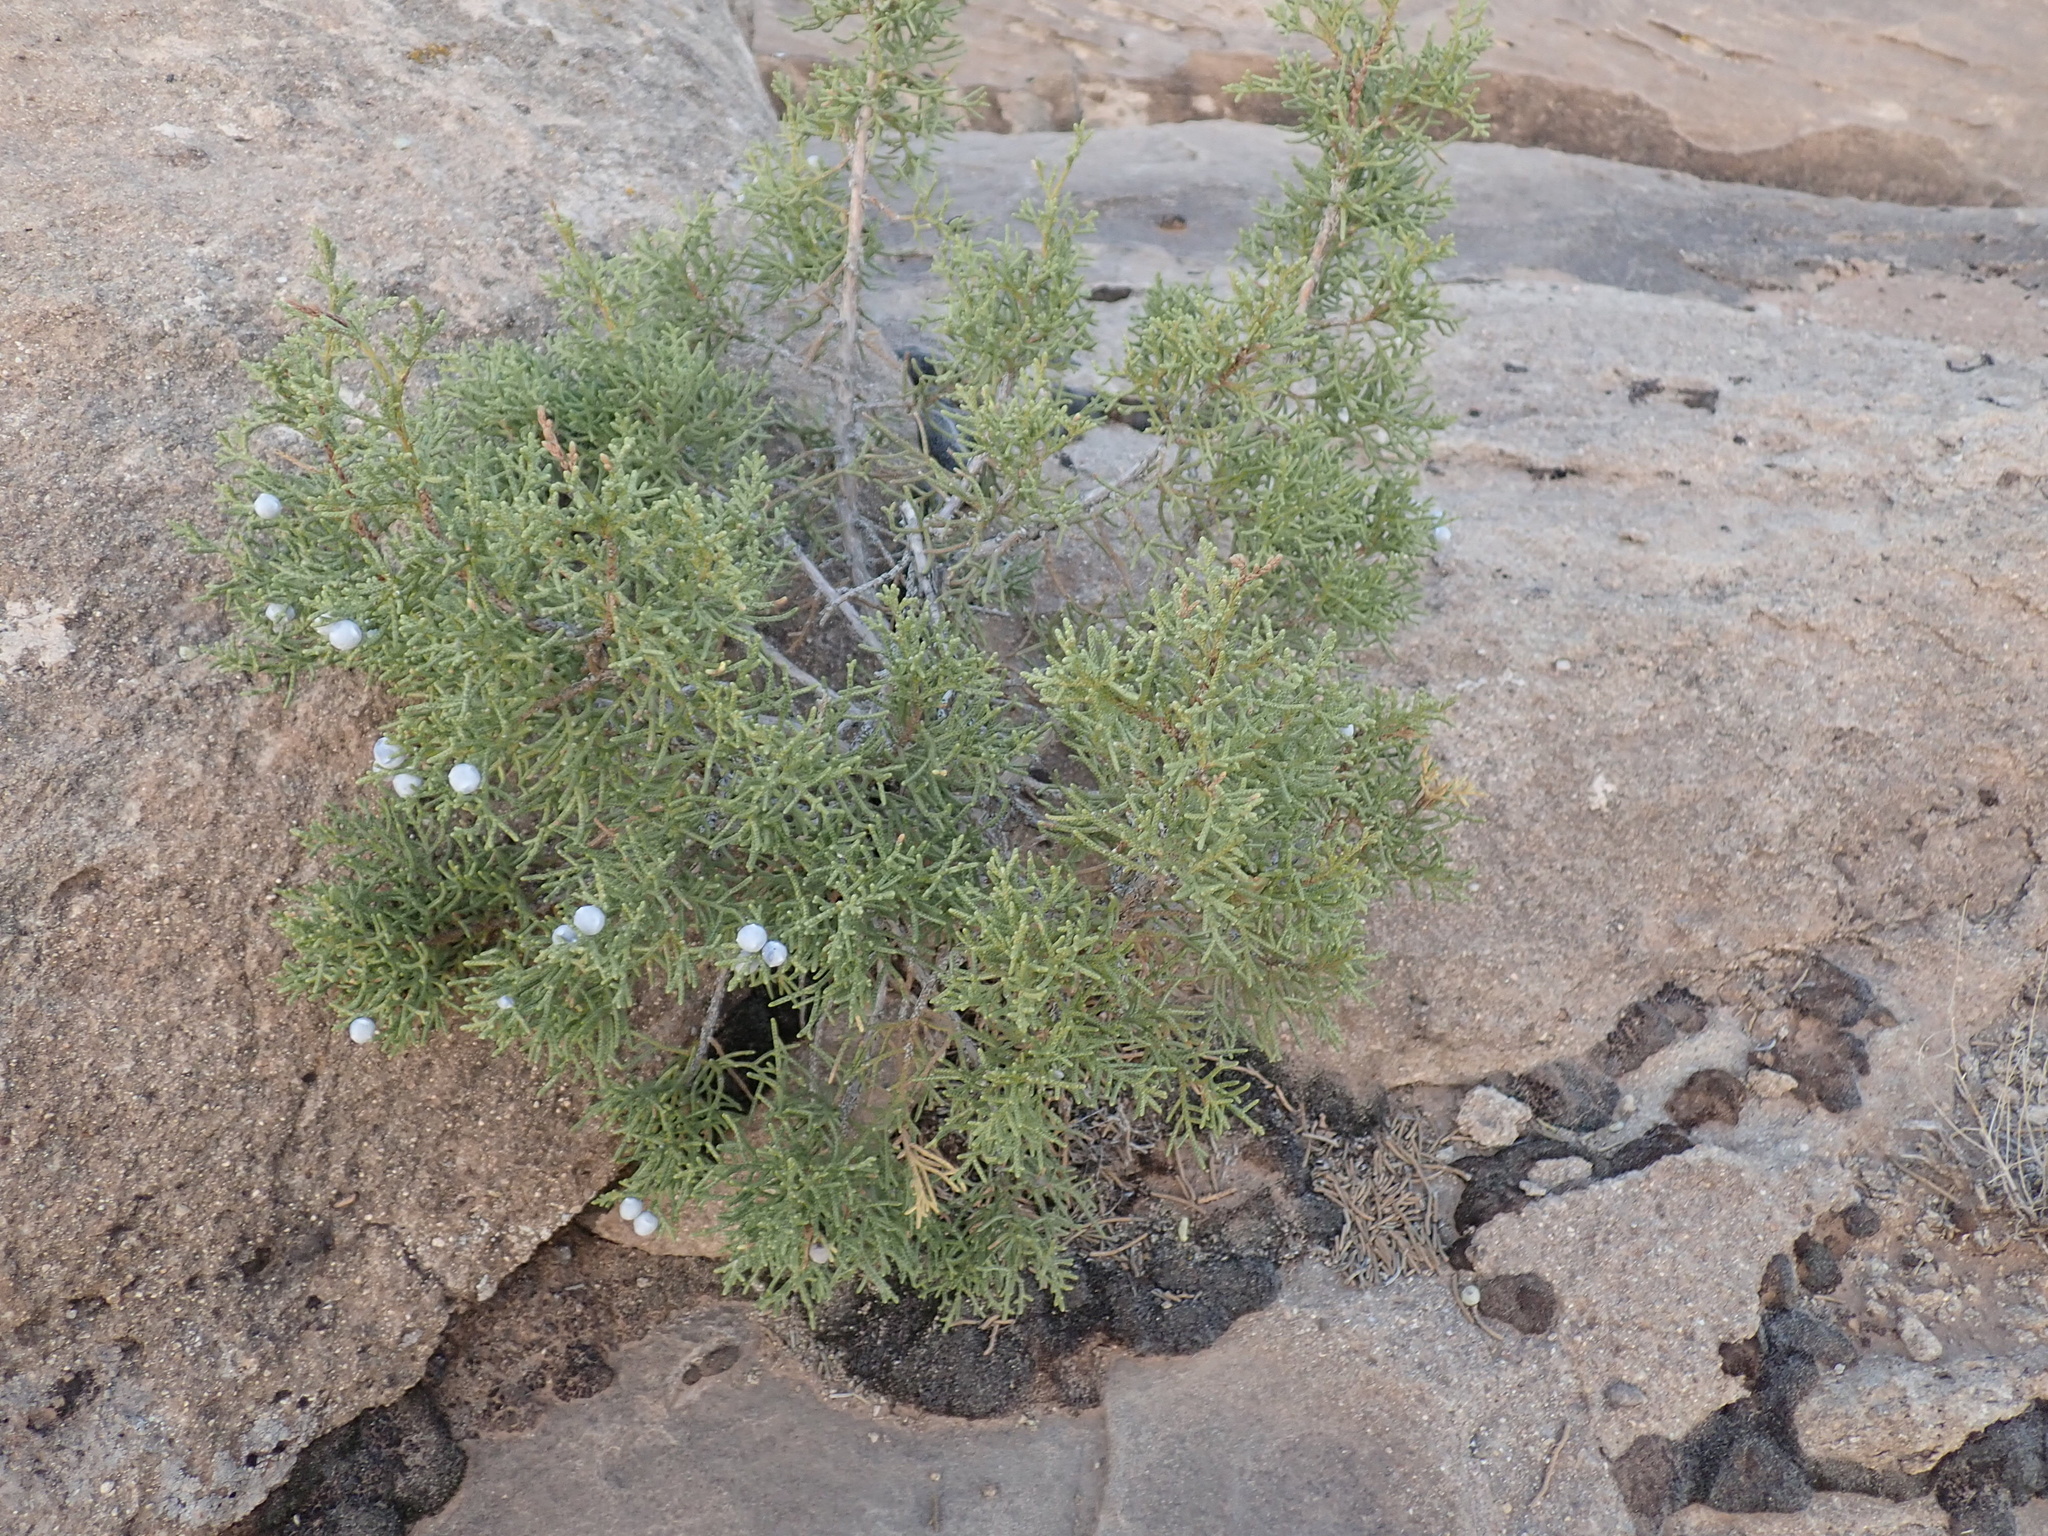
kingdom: Plantae
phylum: Tracheophyta
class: Pinopsida
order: Pinales
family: Cupressaceae
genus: Juniperus
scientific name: Juniperus osteosperma
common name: Utah juniper
